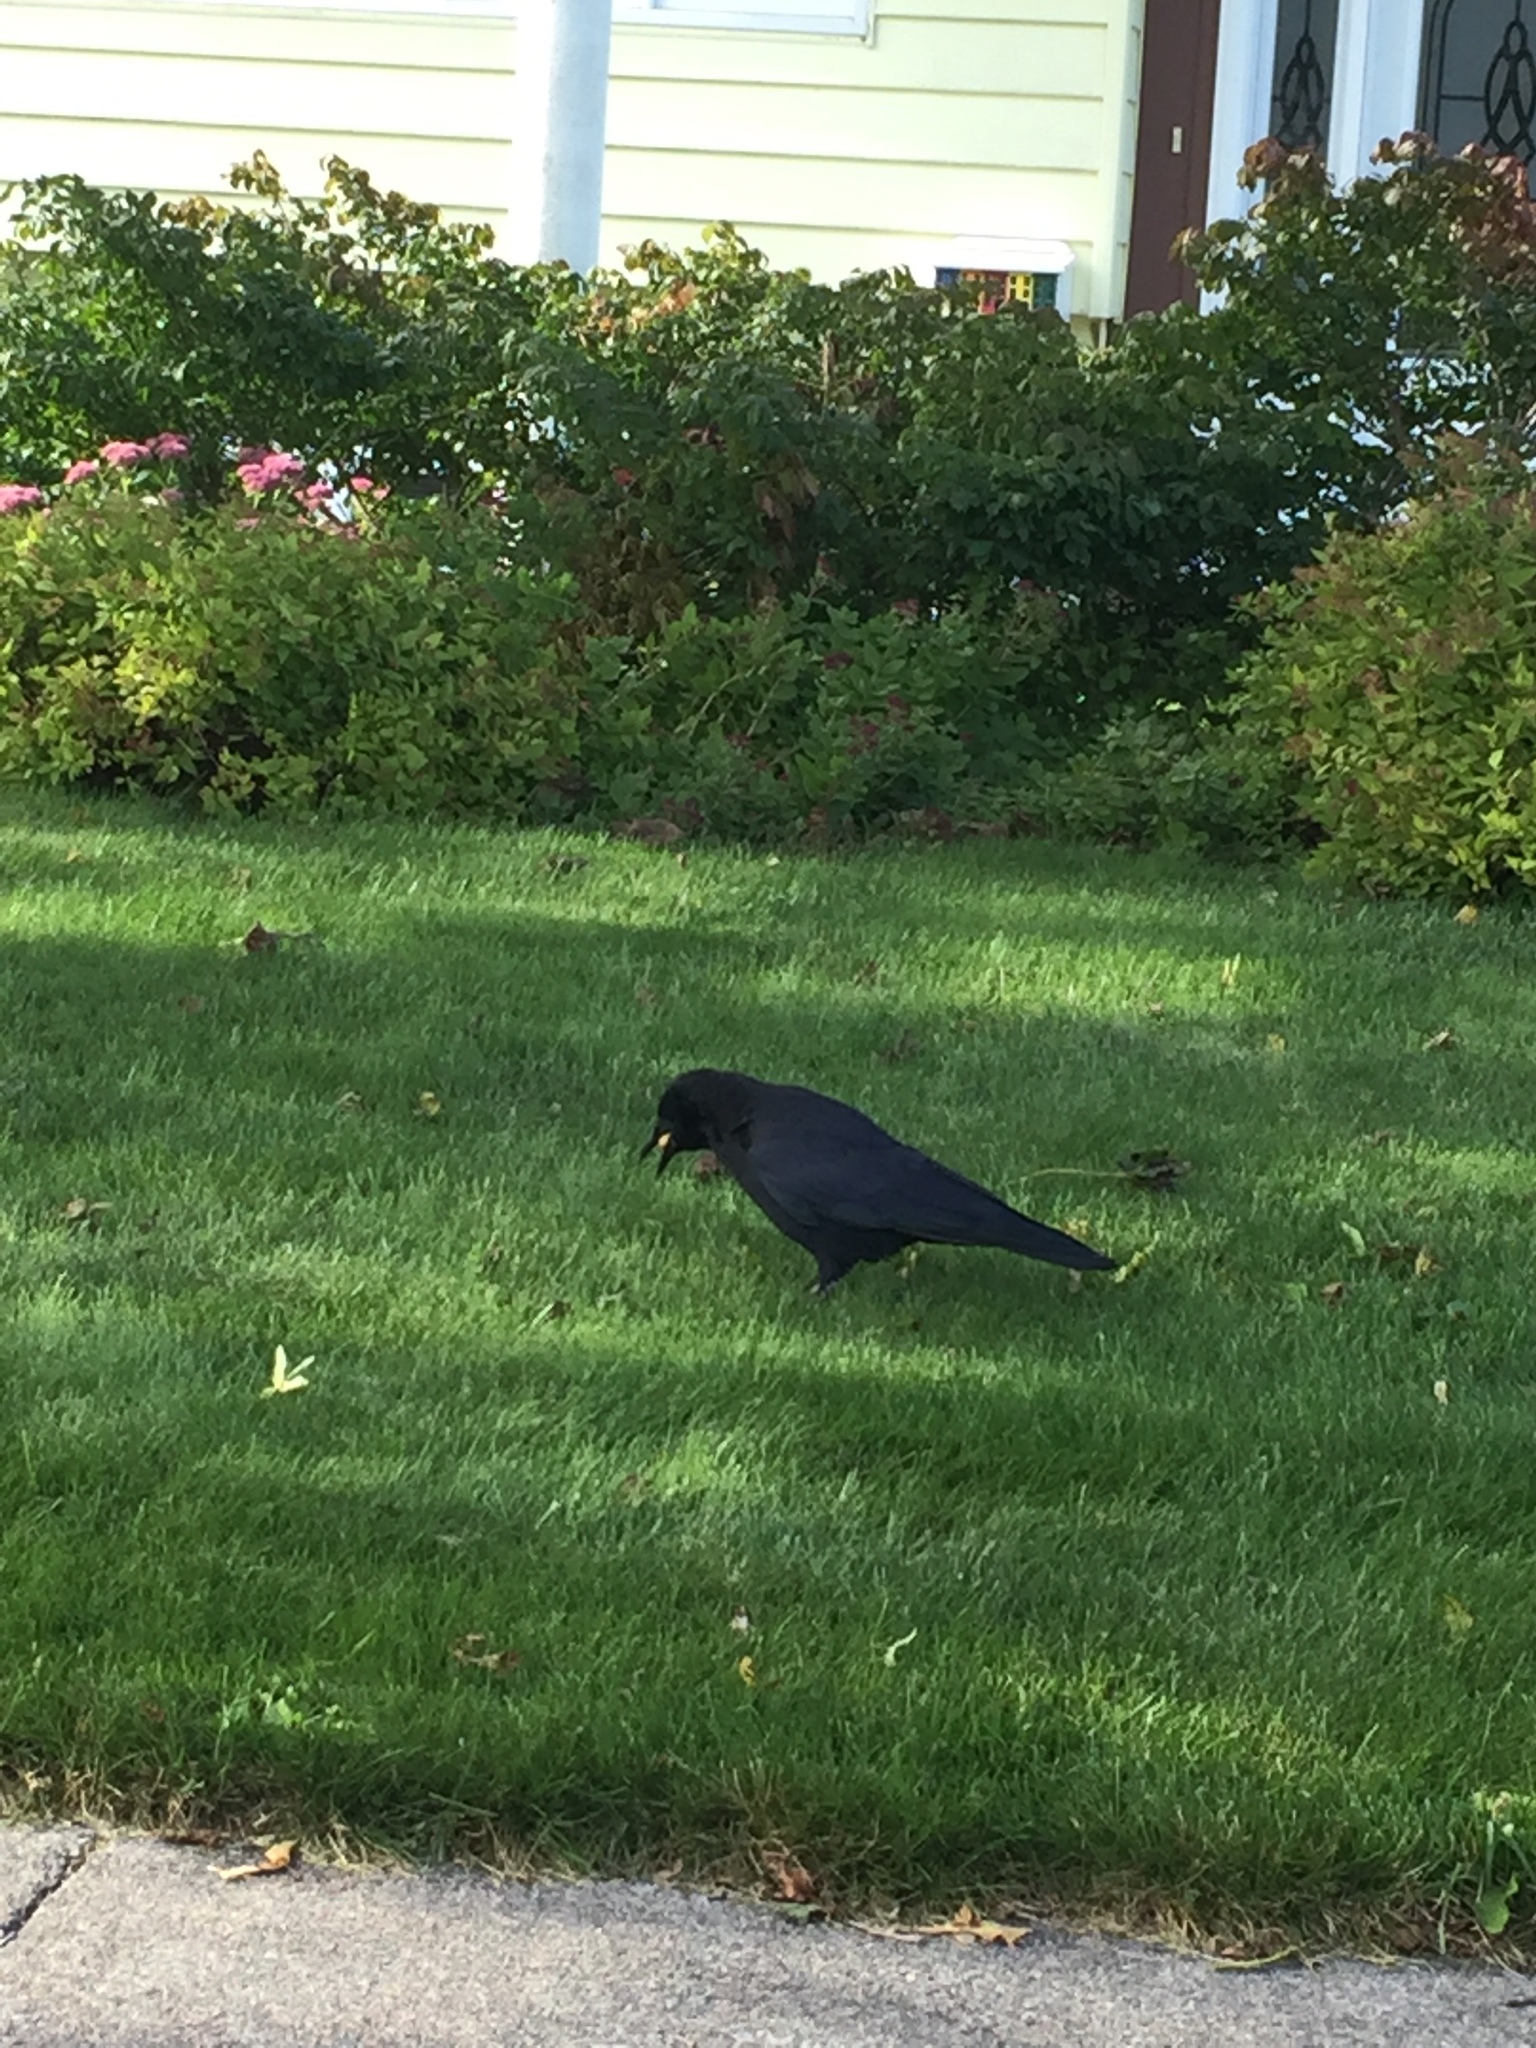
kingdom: Animalia
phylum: Chordata
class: Aves
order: Passeriformes
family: Corvidae
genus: Corvus
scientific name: Corvus brachyrhynchos
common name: American crow
